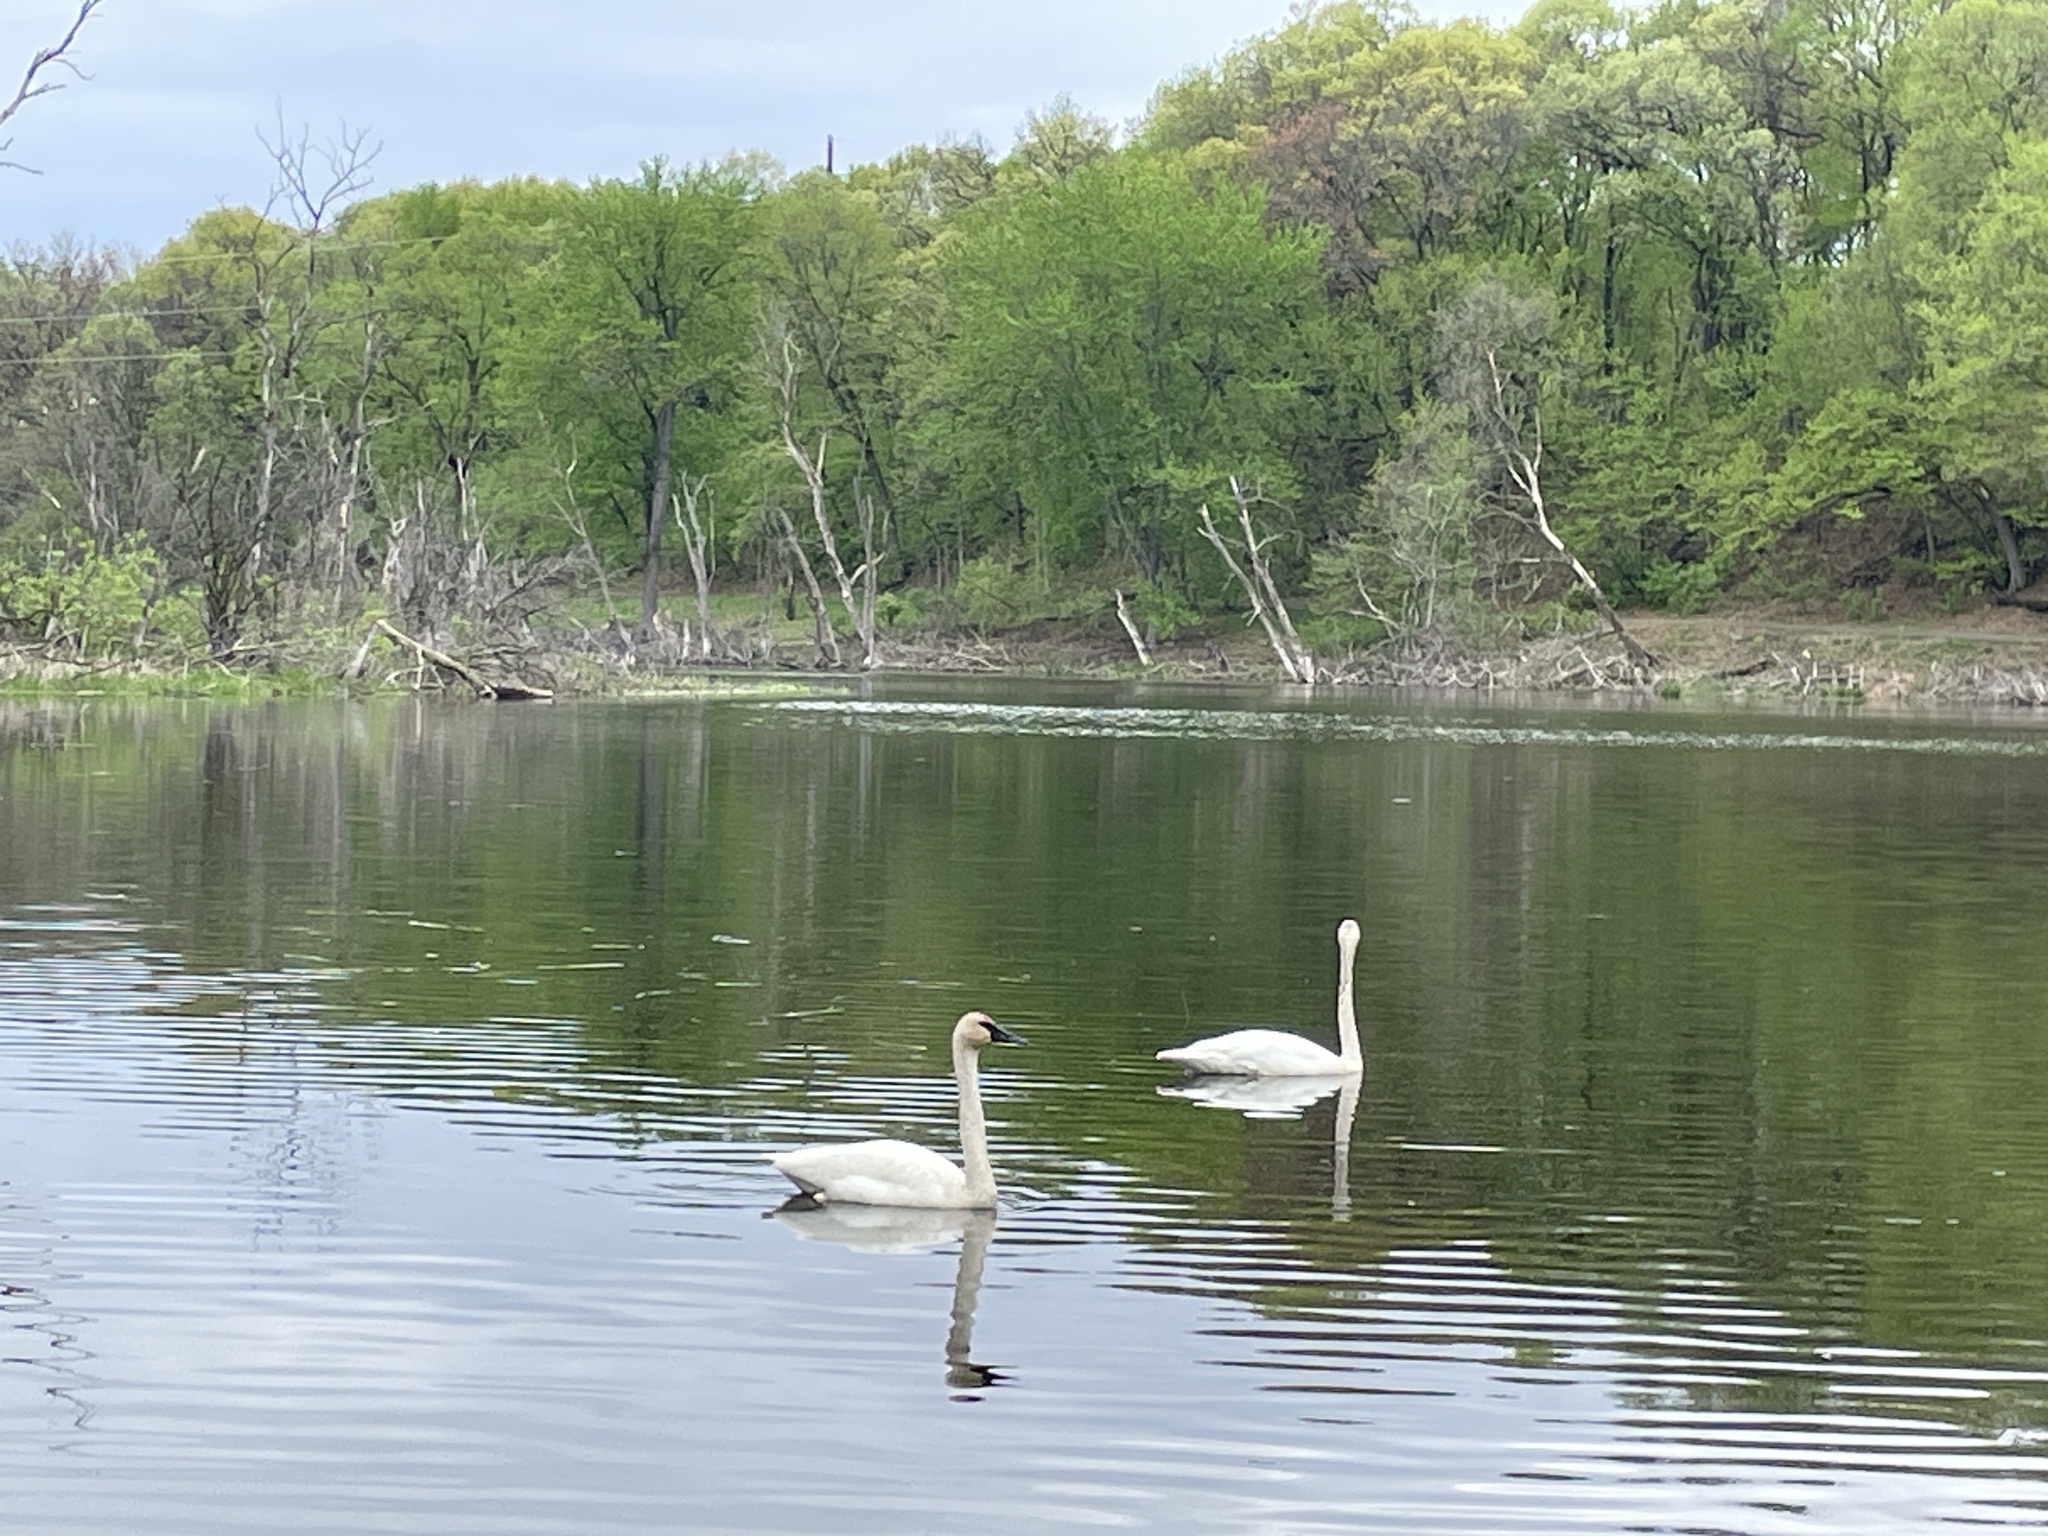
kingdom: Animalia
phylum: Chordata
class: Aves
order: Anseriformes
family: Anatidae
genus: Cygnus
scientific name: Cygnus buccinator
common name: Trumpeter swan
